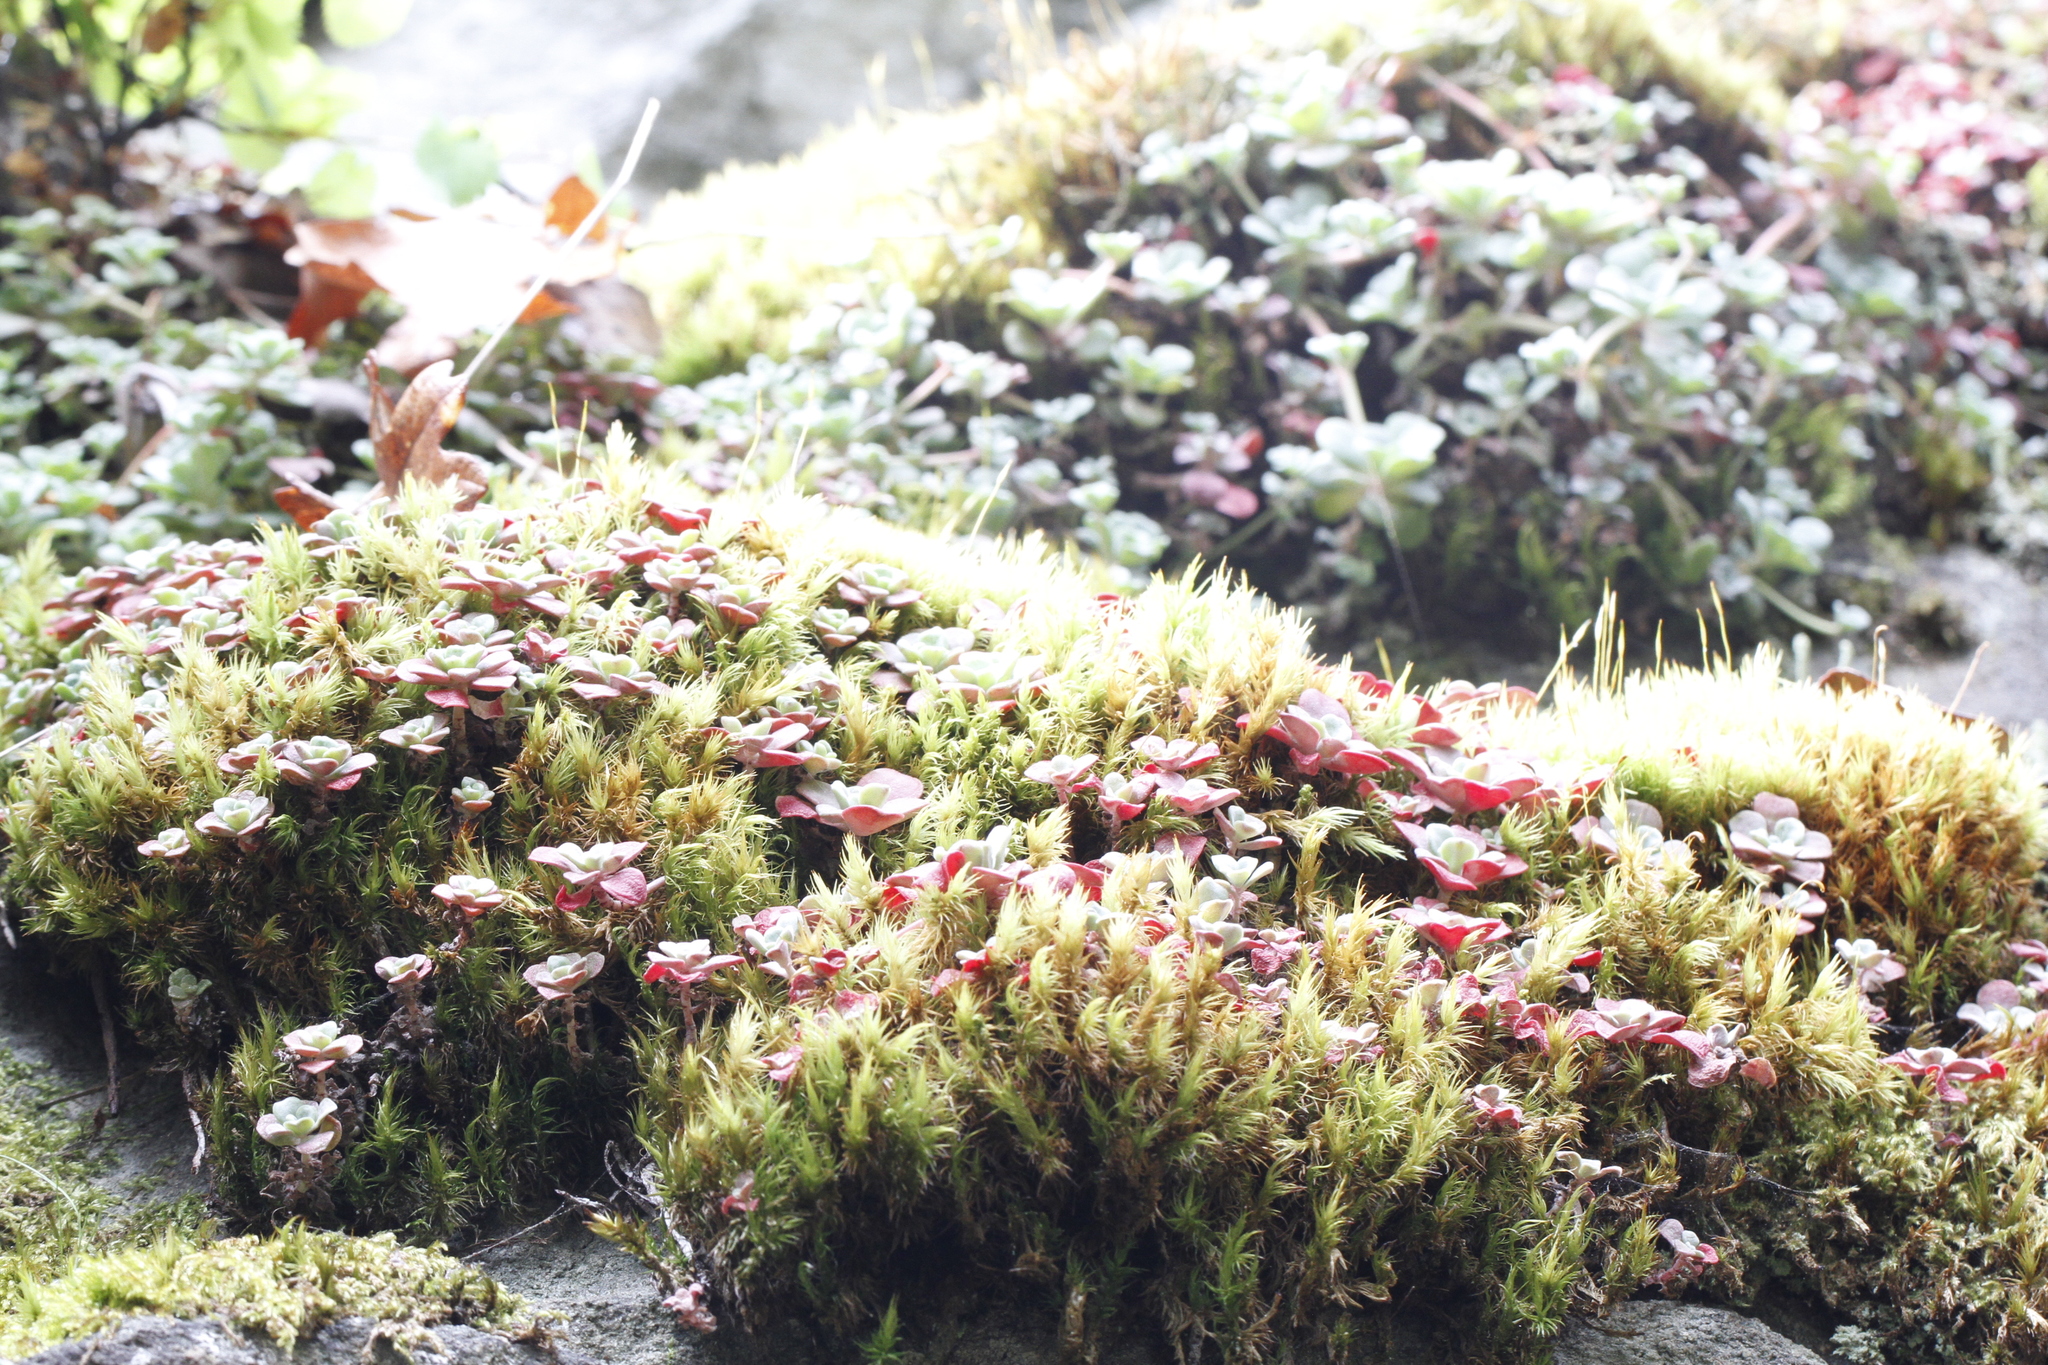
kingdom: Plantae
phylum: Tracheophyta
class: Magnoliopsida
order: Saxifragales
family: Crassulaceae
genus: Sedum
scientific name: Sedum spathulifolium
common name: Colorado stonecrop
